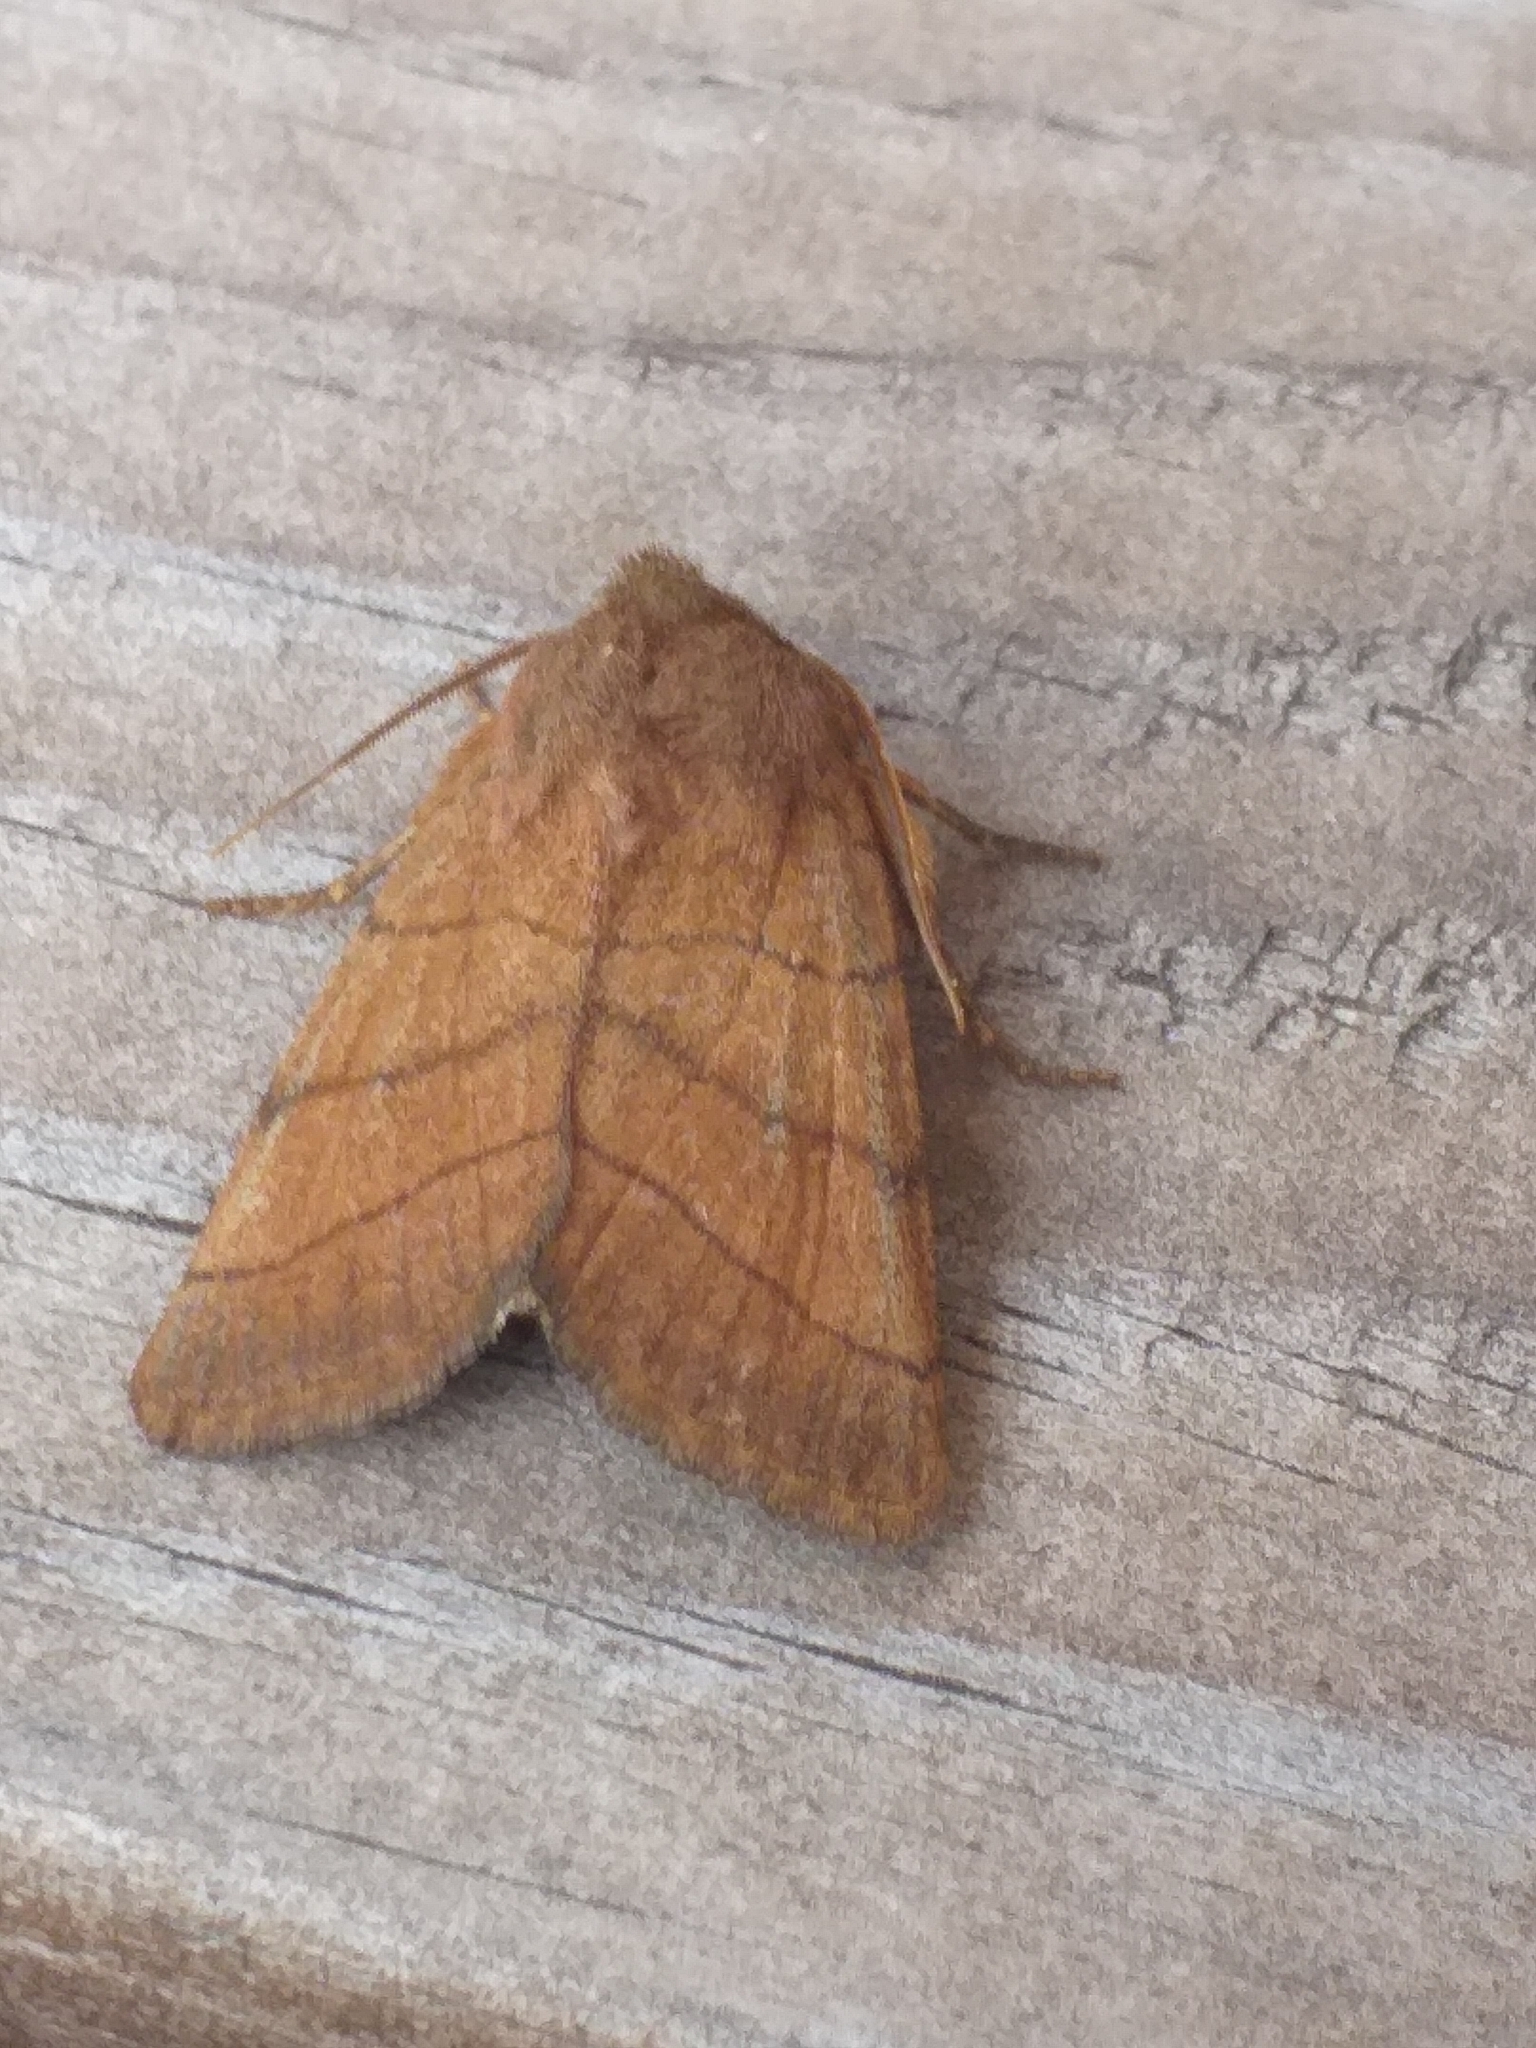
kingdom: Animalia
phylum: Arthropoda
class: Insecta
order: Lepidoptera
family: Noctuidae
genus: Charanyca
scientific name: Charanyca trigrammica
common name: Treble lines
